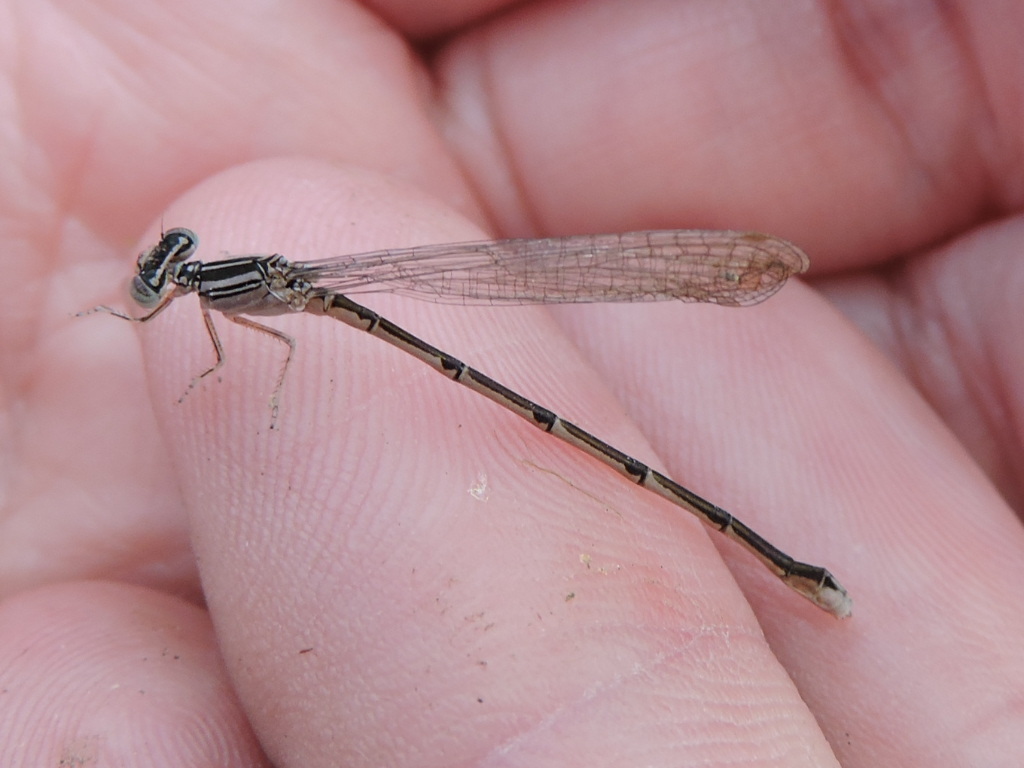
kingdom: Animalia
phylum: Arthropoda
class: Insecta
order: Odonata
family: Coenagrionidae
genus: Enallagma
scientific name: Enallagma basidens
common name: Double-striped bluet
